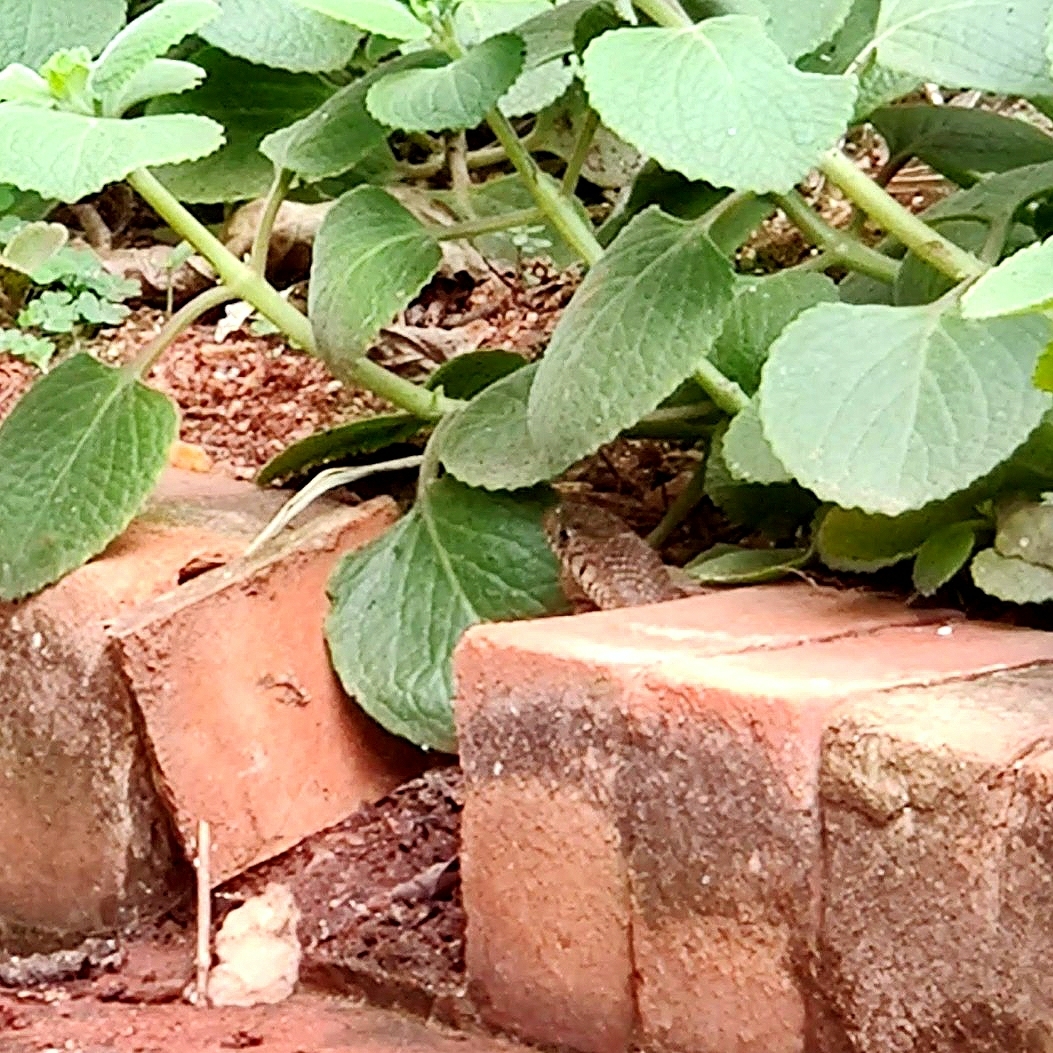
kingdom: Animalia
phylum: Chordata
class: Squamata
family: Colubridae
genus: Ptyas
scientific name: Ptyas mucosa
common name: Oriental ratsnake
